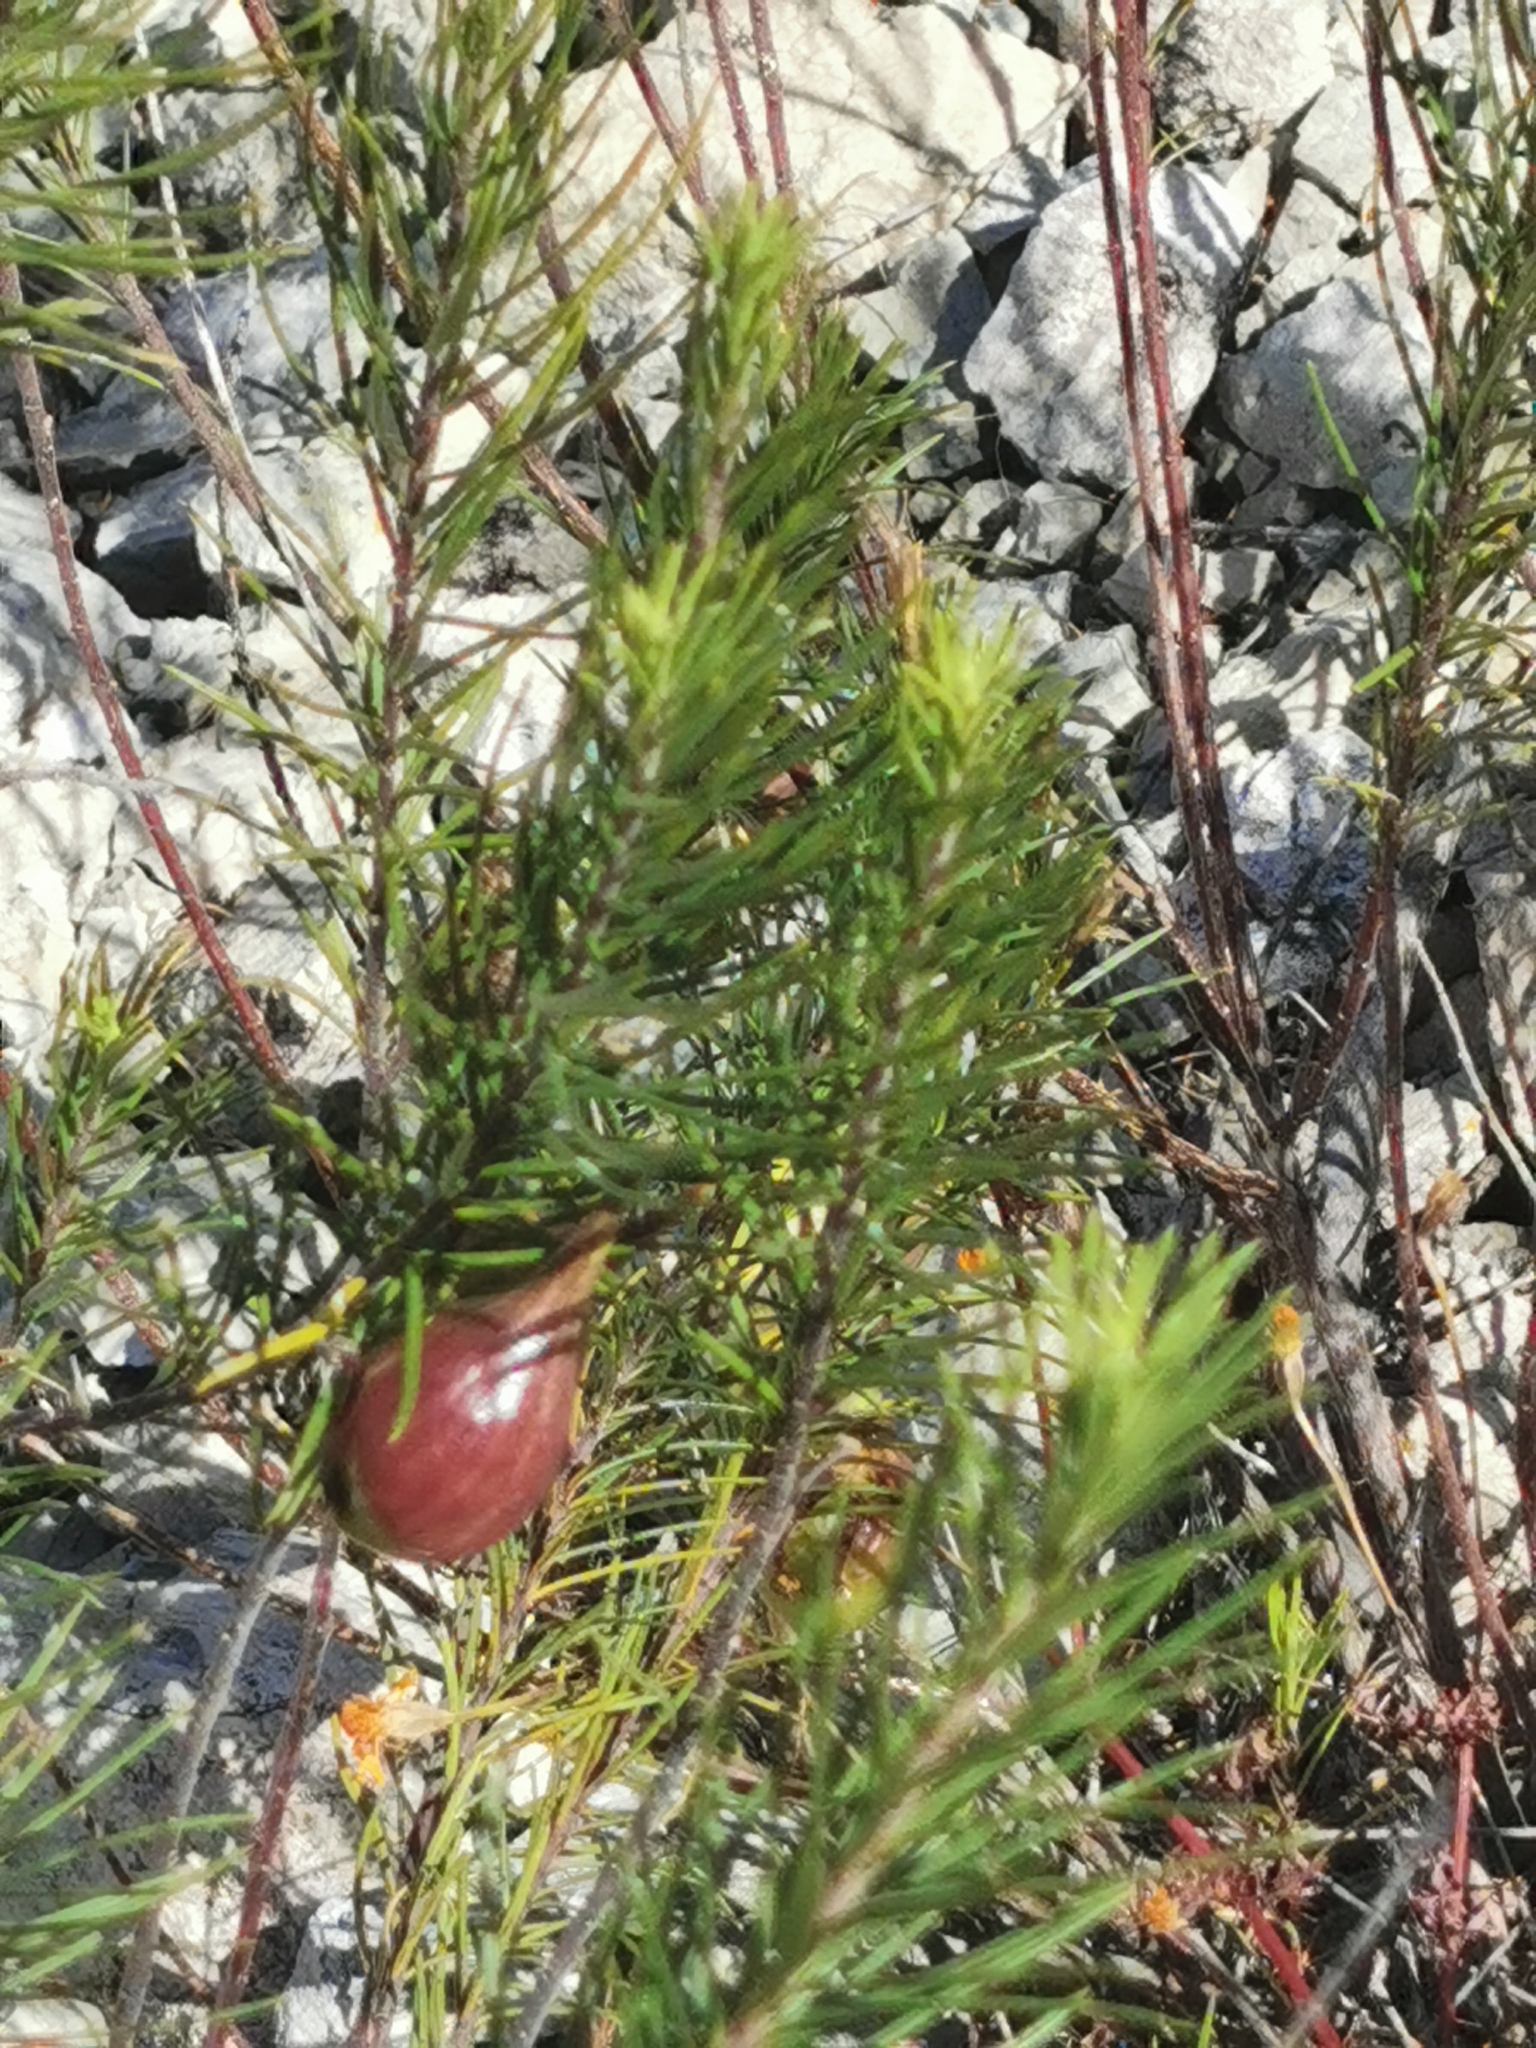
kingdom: Plantae
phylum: Tracheophyta
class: Magnoliopsida
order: Gentianales
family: Apocynaceae
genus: Asclepias
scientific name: Asclepias linaria
